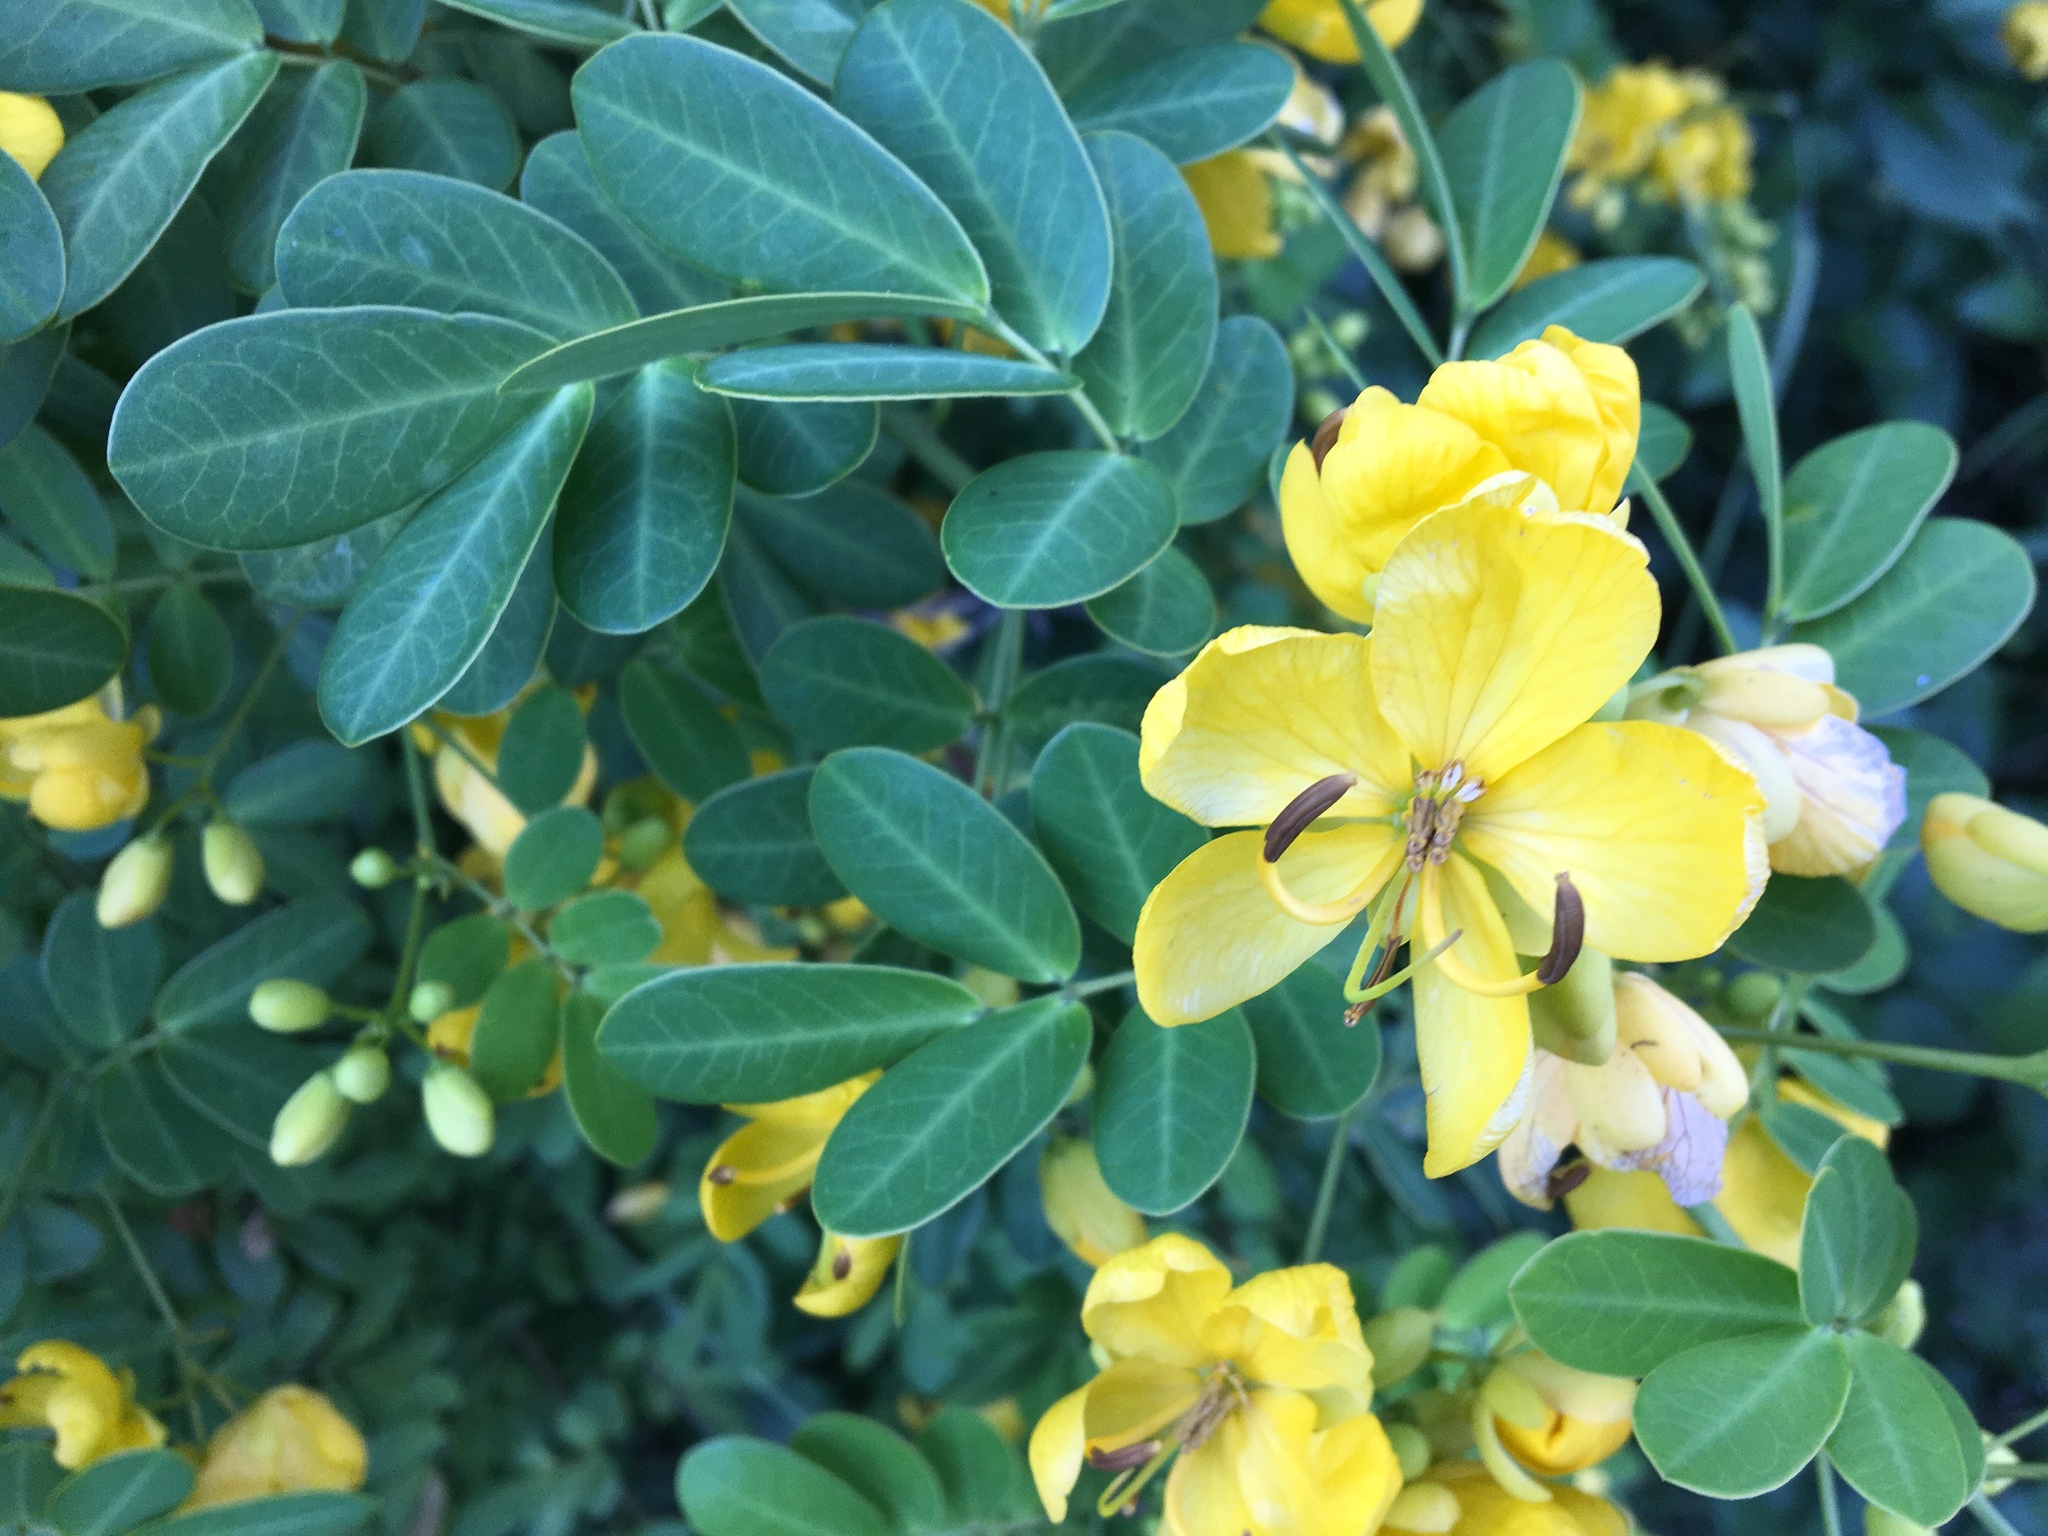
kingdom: Plantae
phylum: Tracheophyta
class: Magnoliopsida
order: Fabales
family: Fabaceae
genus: Senna
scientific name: Senna pendula
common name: Easter cassia
